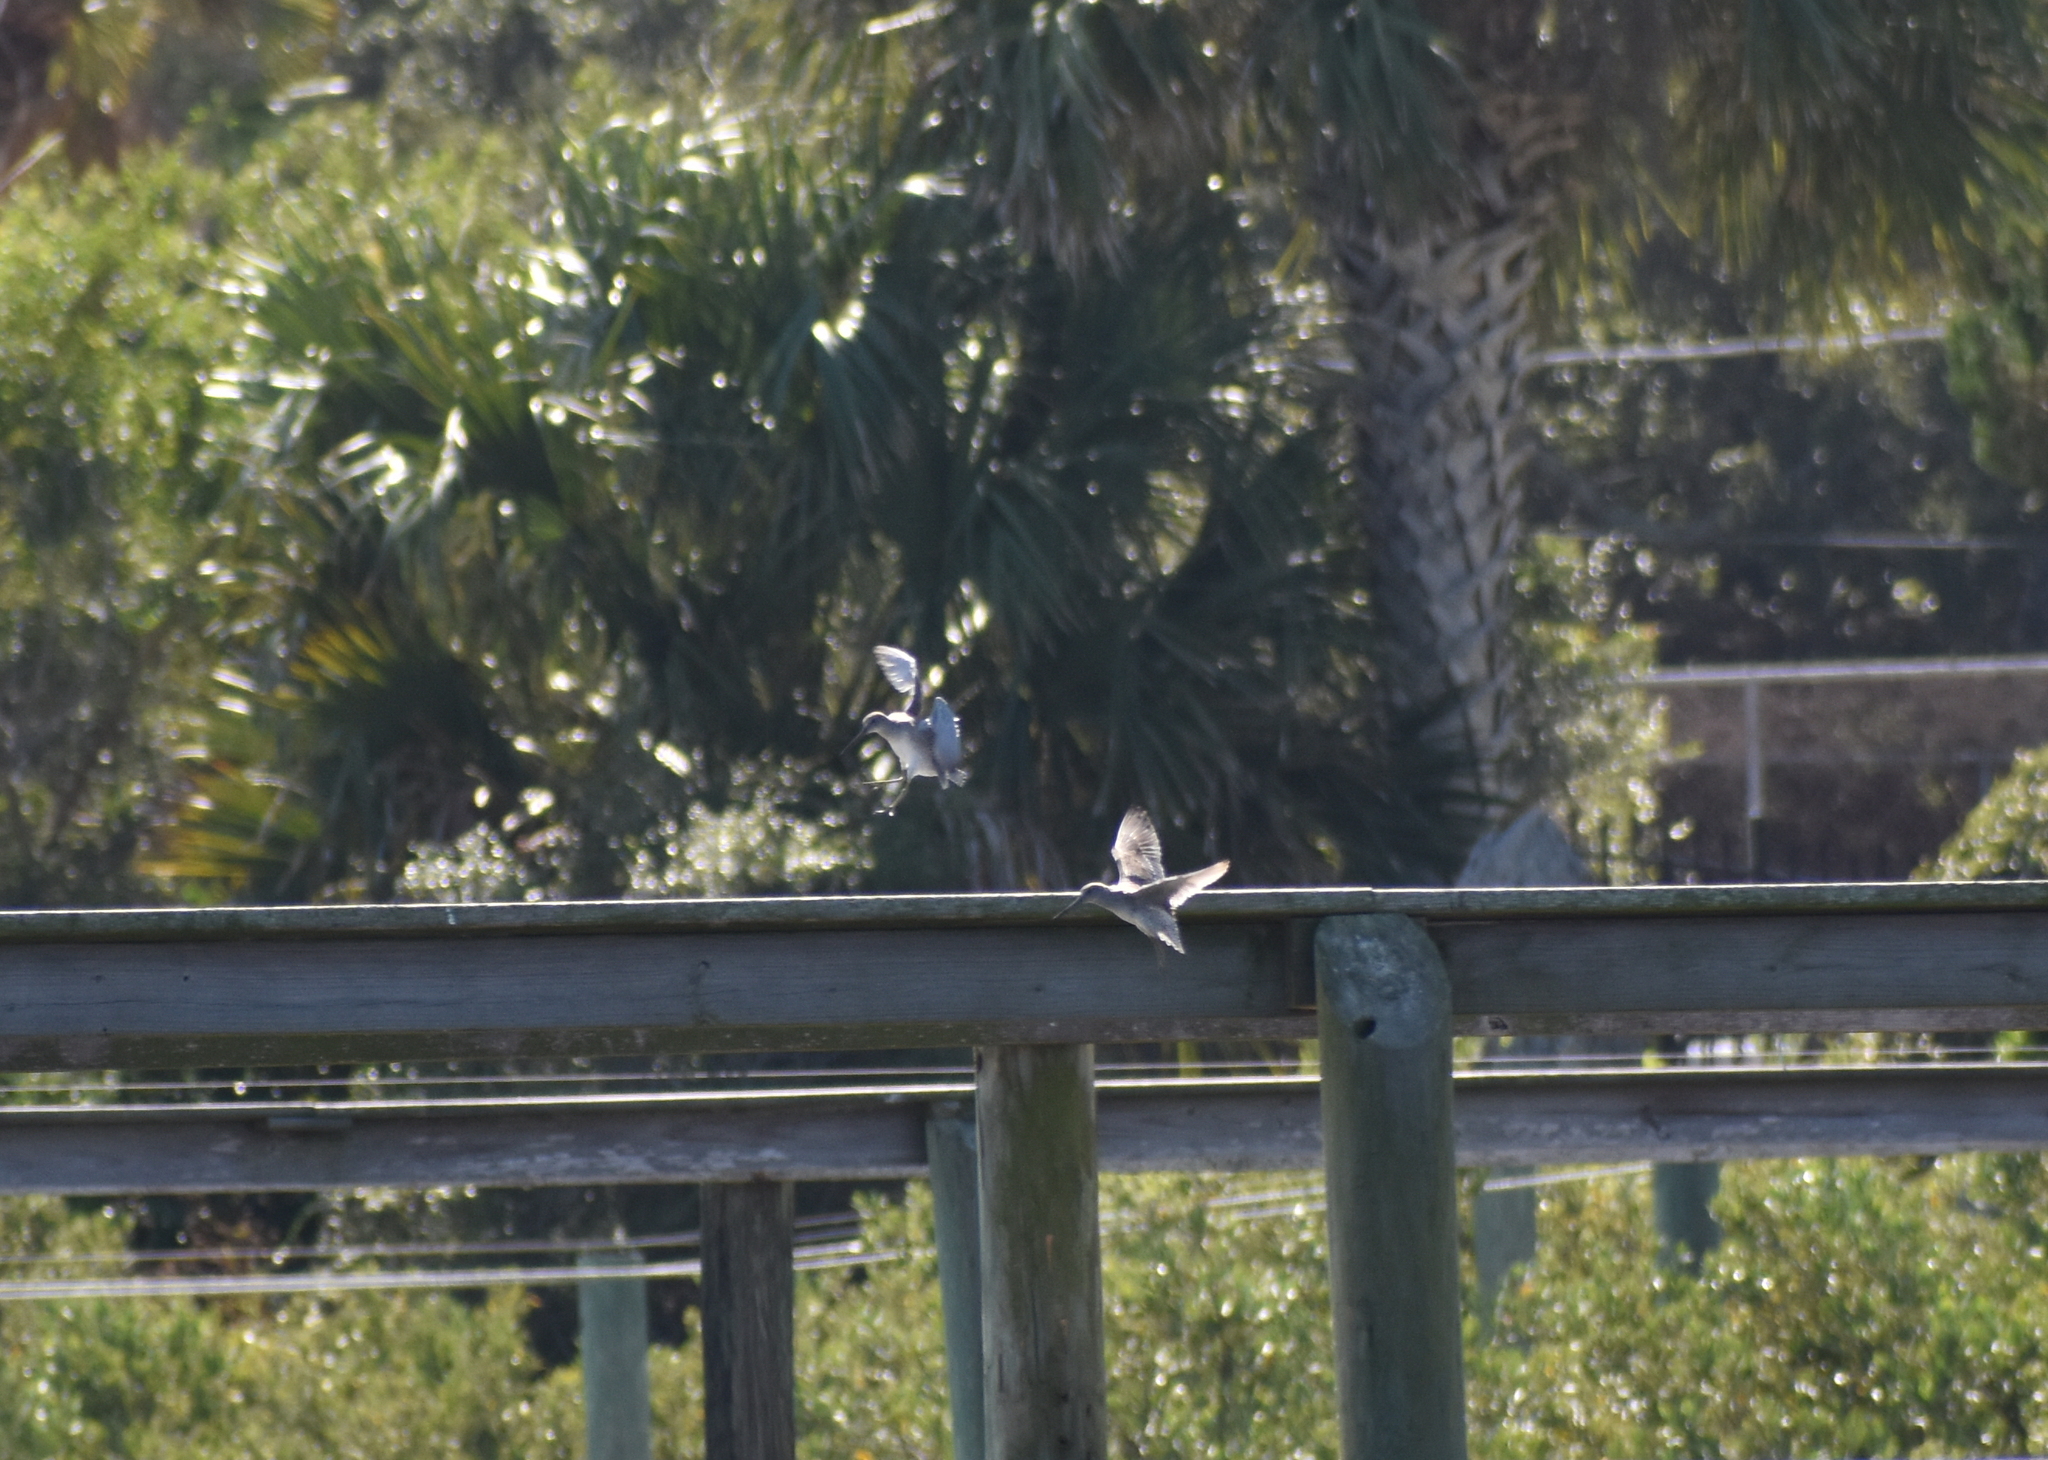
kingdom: Animalia
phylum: Chordata
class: Aves
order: Charadriiformes
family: Scolopacidae
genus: Limnodromus
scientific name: Limnodromus griseus
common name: Short-billed dowitcher
